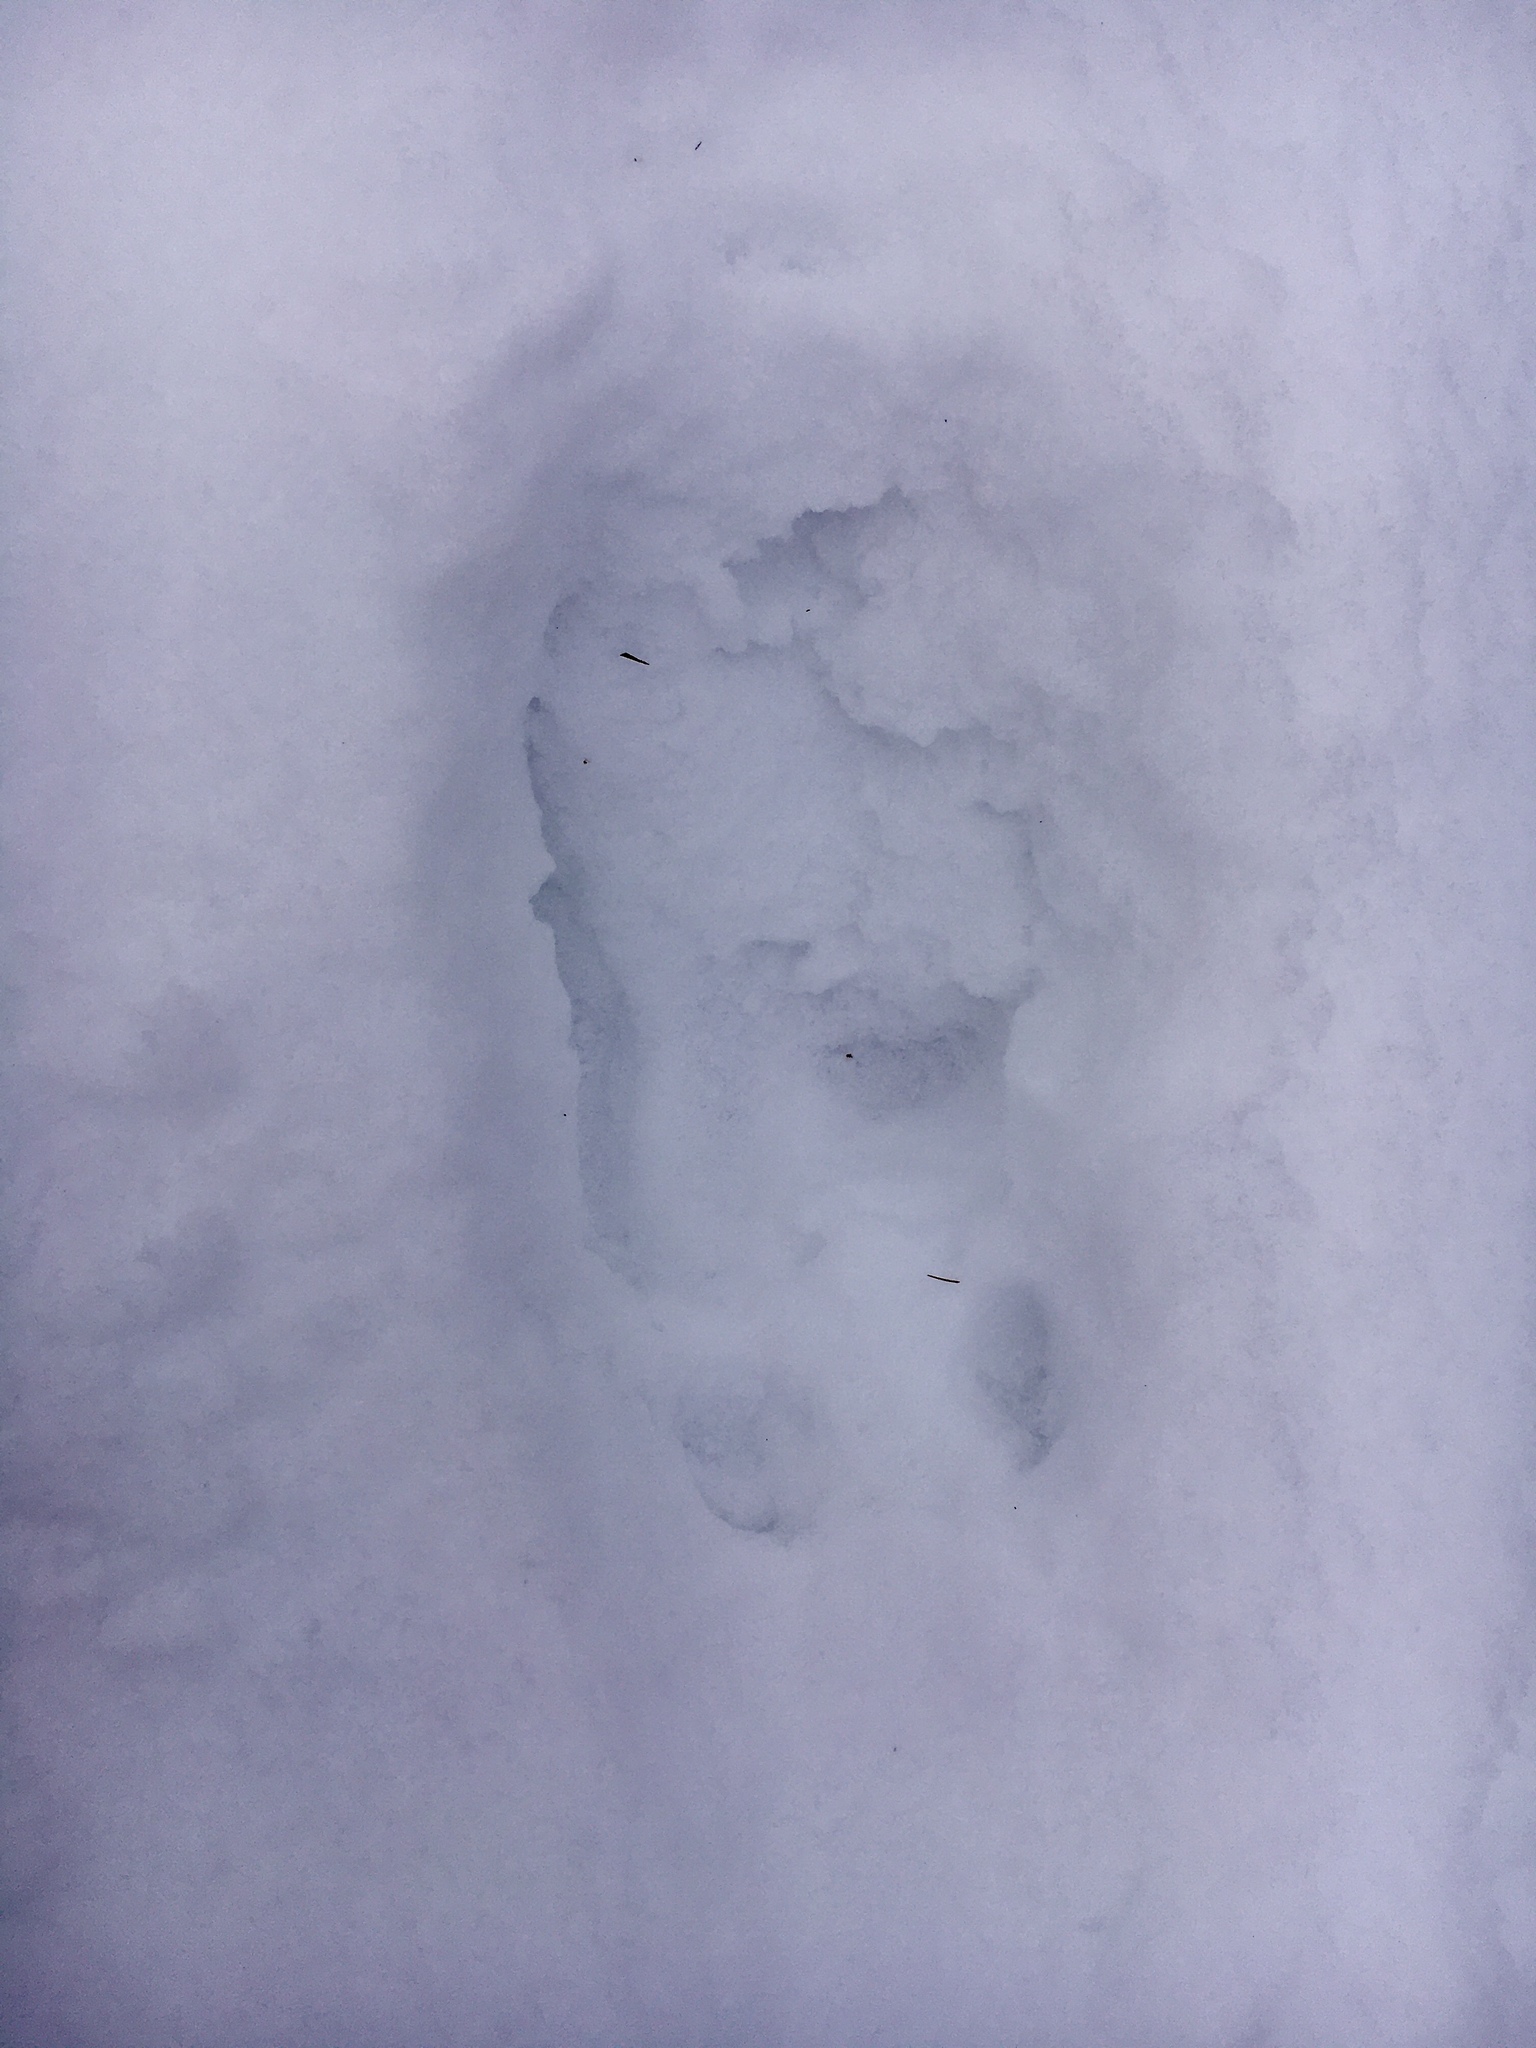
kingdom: Animalia
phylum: Chordata
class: Mammalia
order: Artiodactyla
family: Cervidae
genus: Alces
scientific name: Alces alces
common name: Moose
